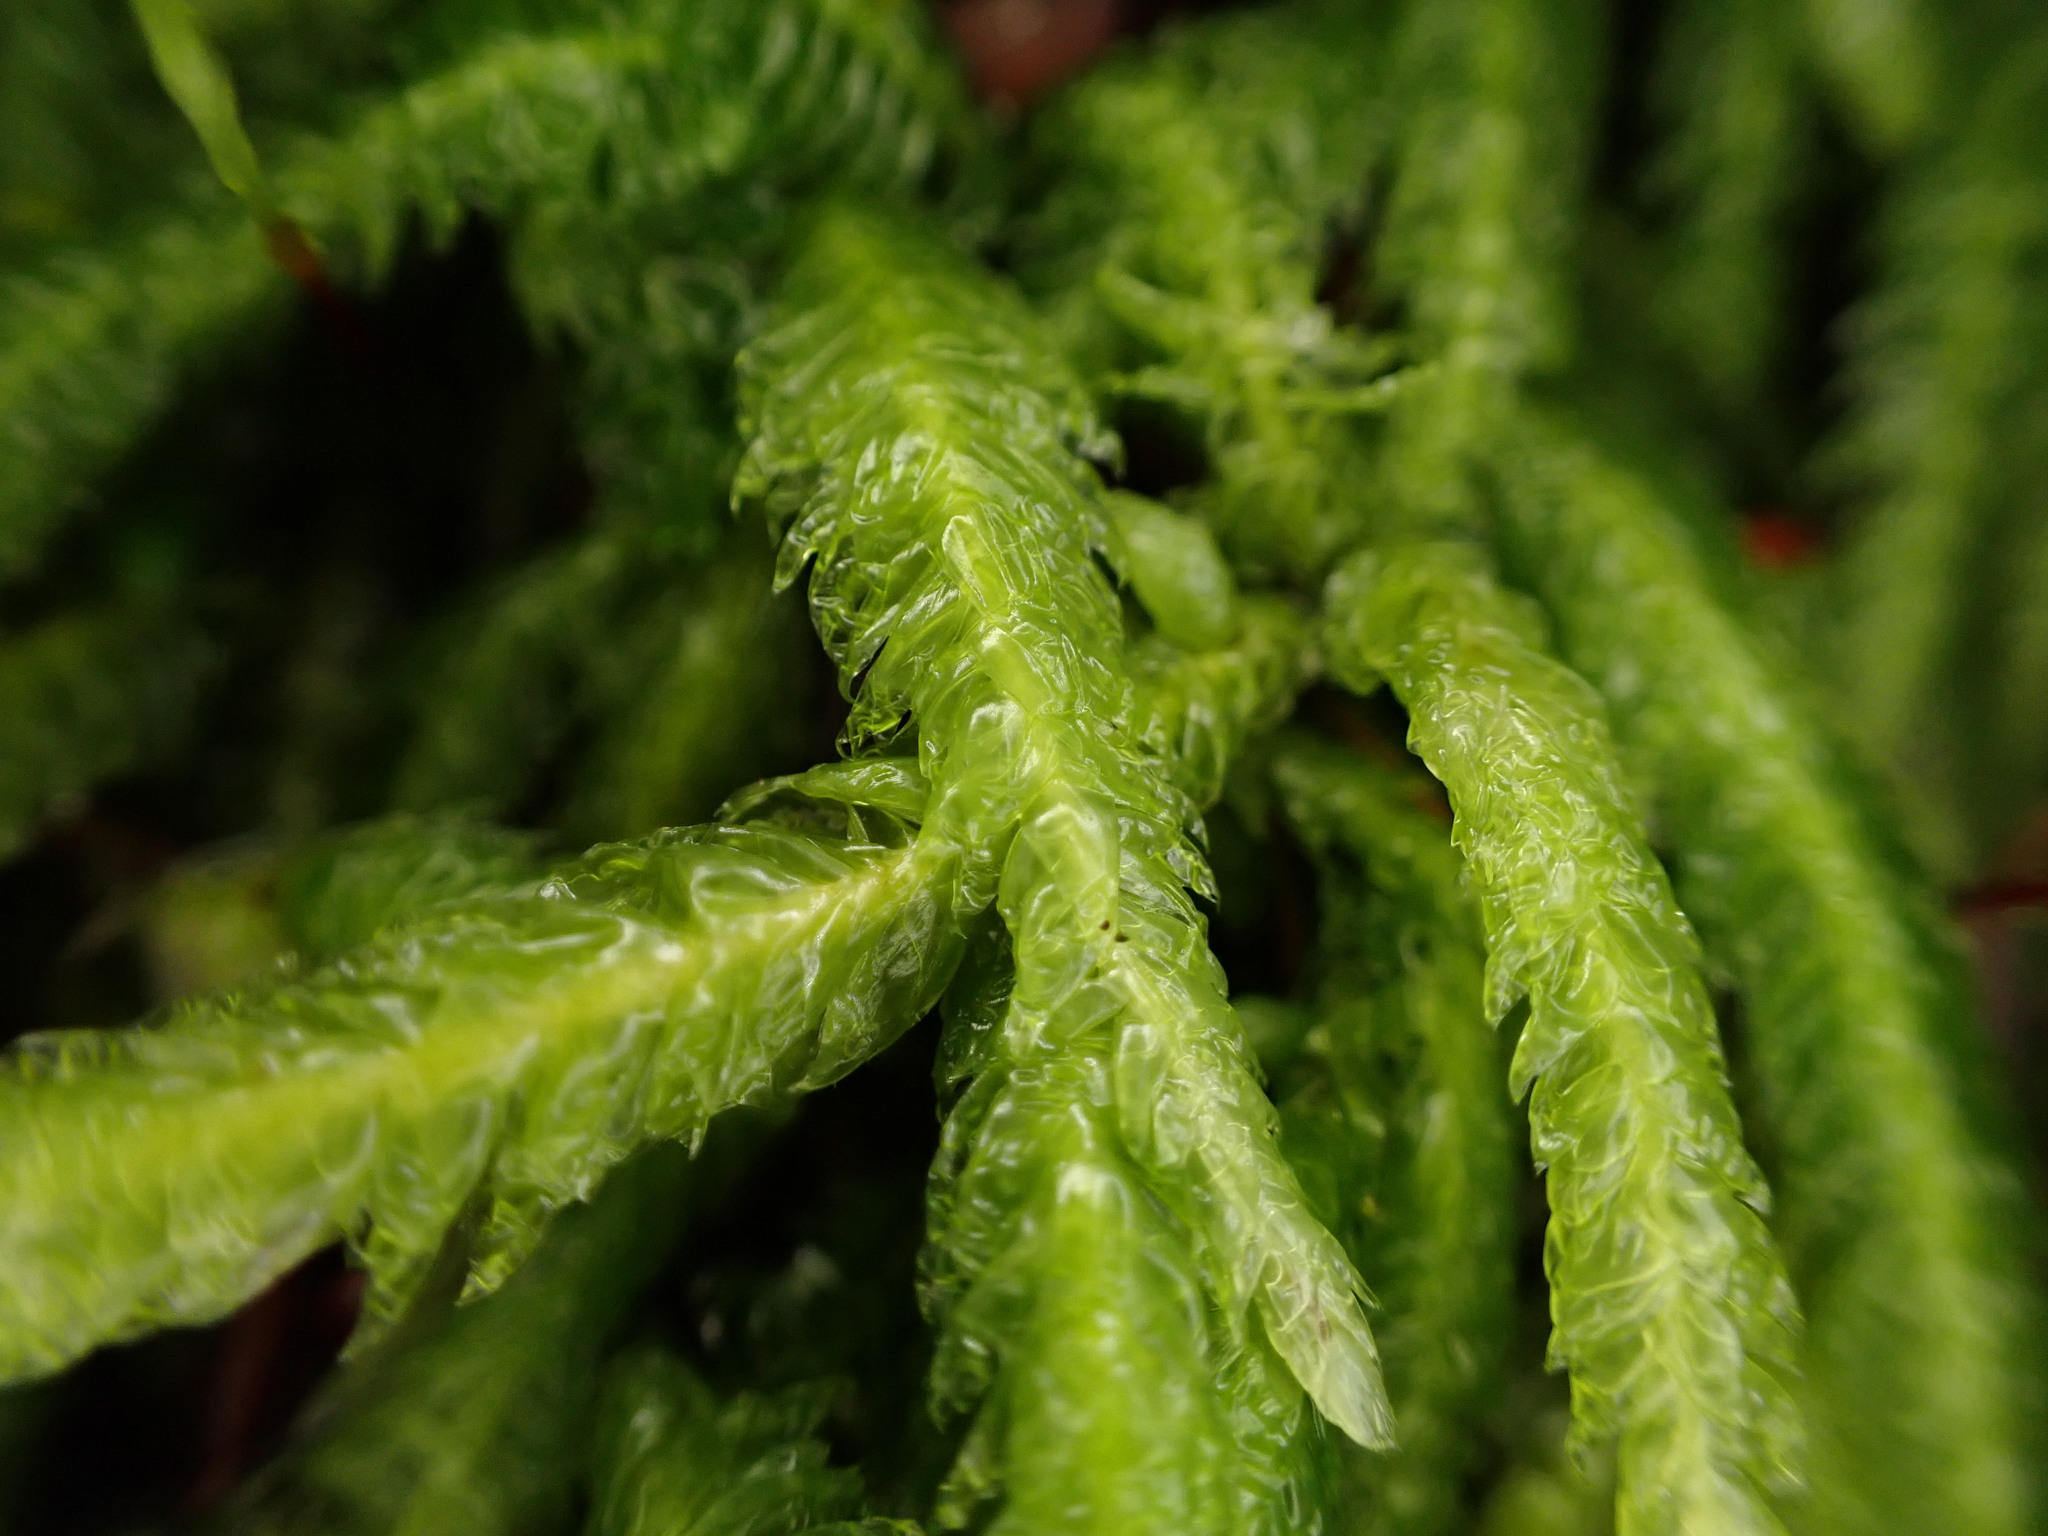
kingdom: Plantae
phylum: Bryophyta
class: Bryopsida
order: Hypnales
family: Plagiotheciaceae
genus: Plagiothecium
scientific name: Plagiothecium undulatum
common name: Waved silk-moss
